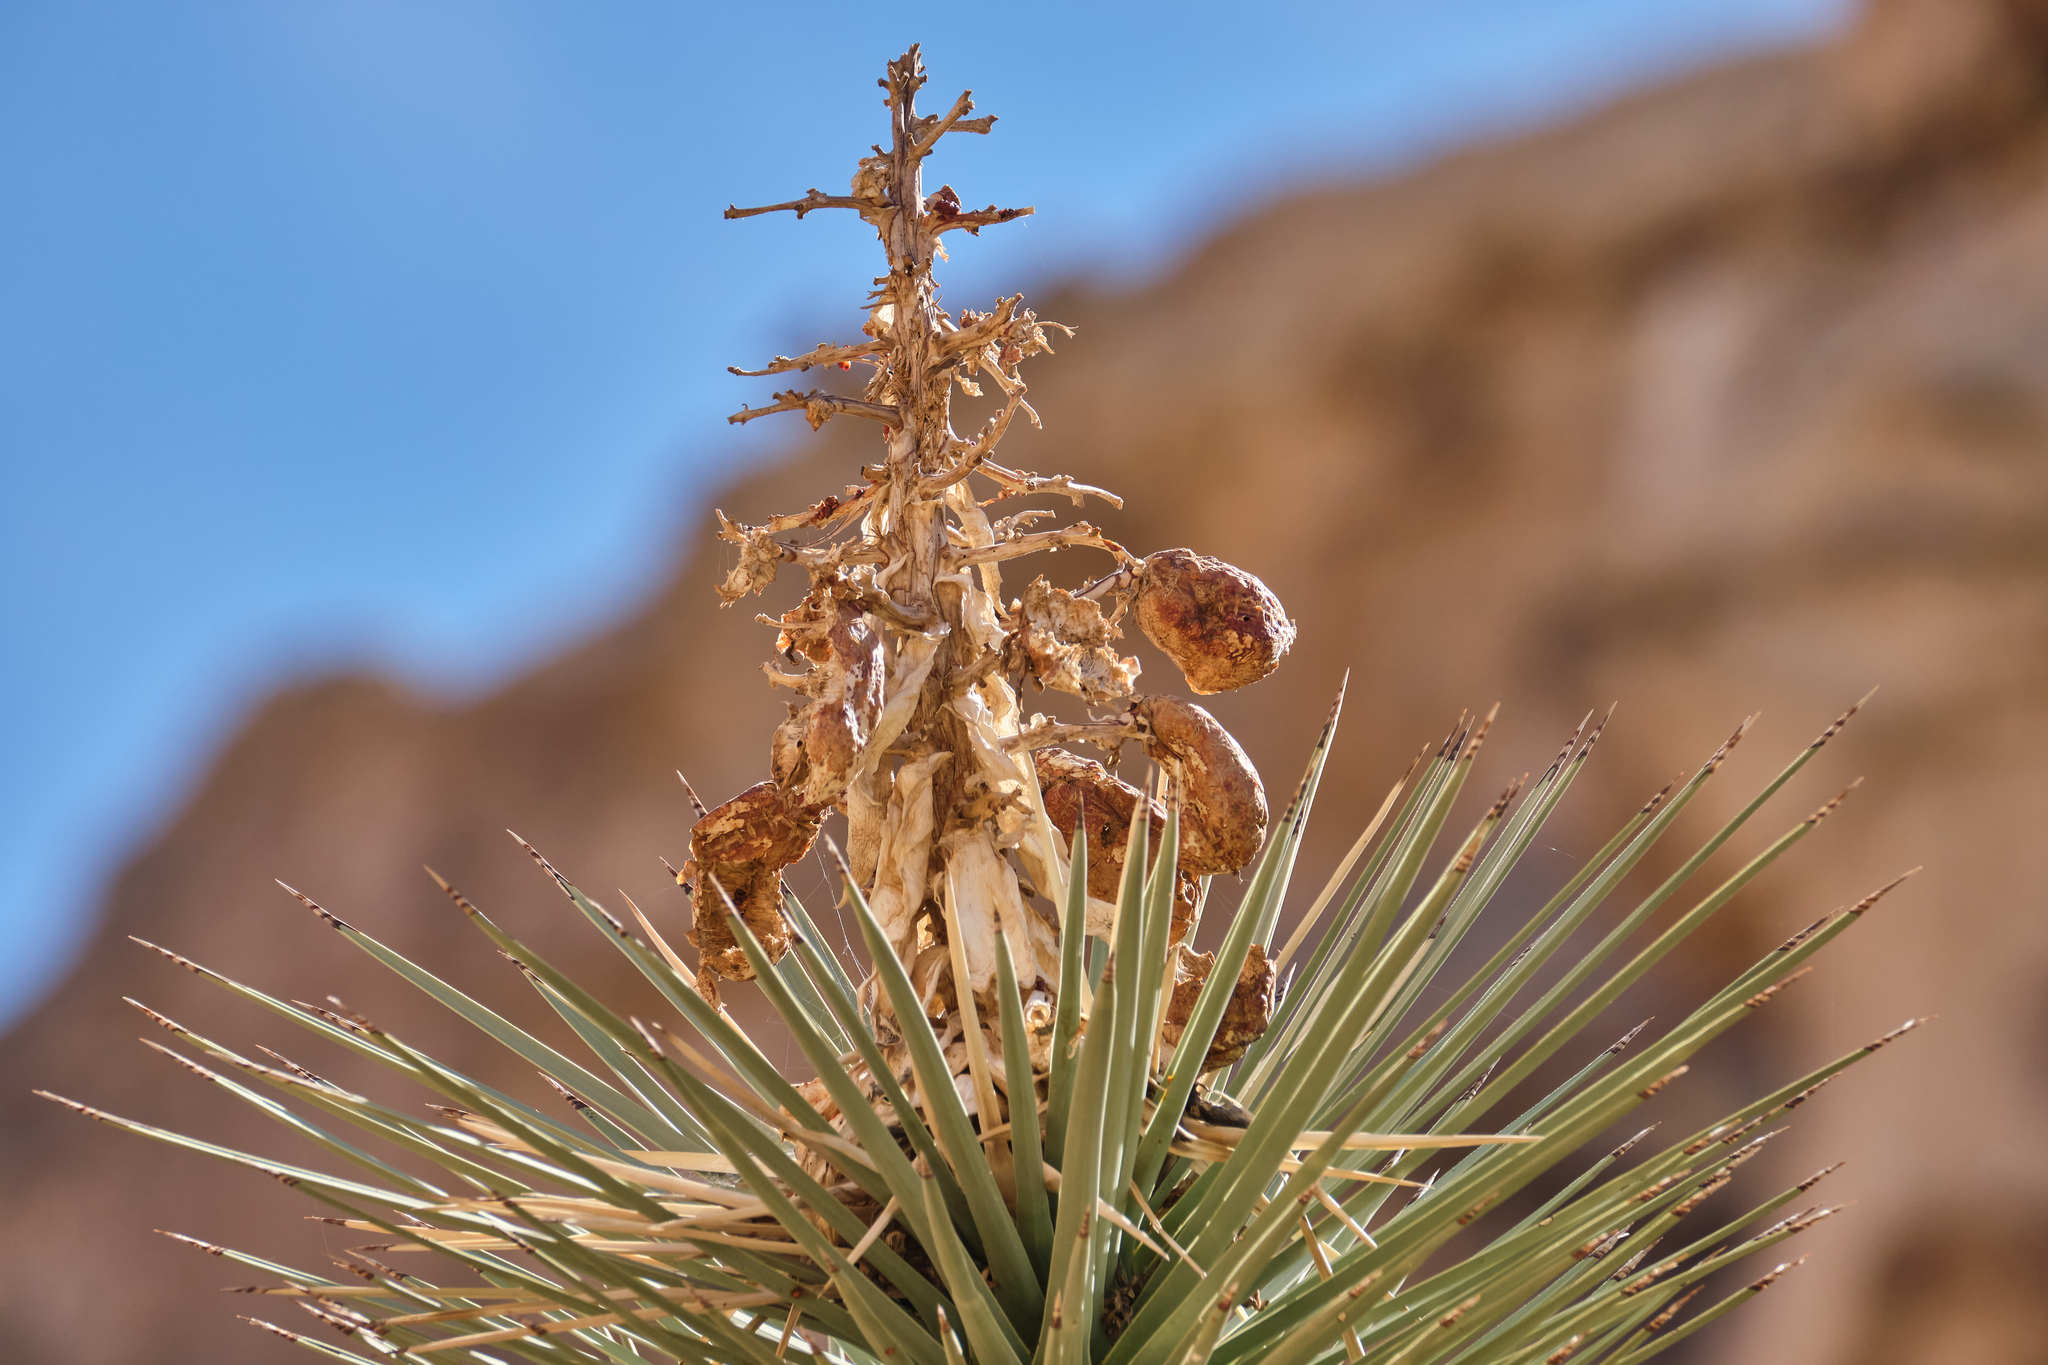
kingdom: Plantae
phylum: Tracheophyta
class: Liliopsida
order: Asparagales
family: Asparagaceae
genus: Yucca
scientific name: Yucca brevifolia
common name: Joshua tree
